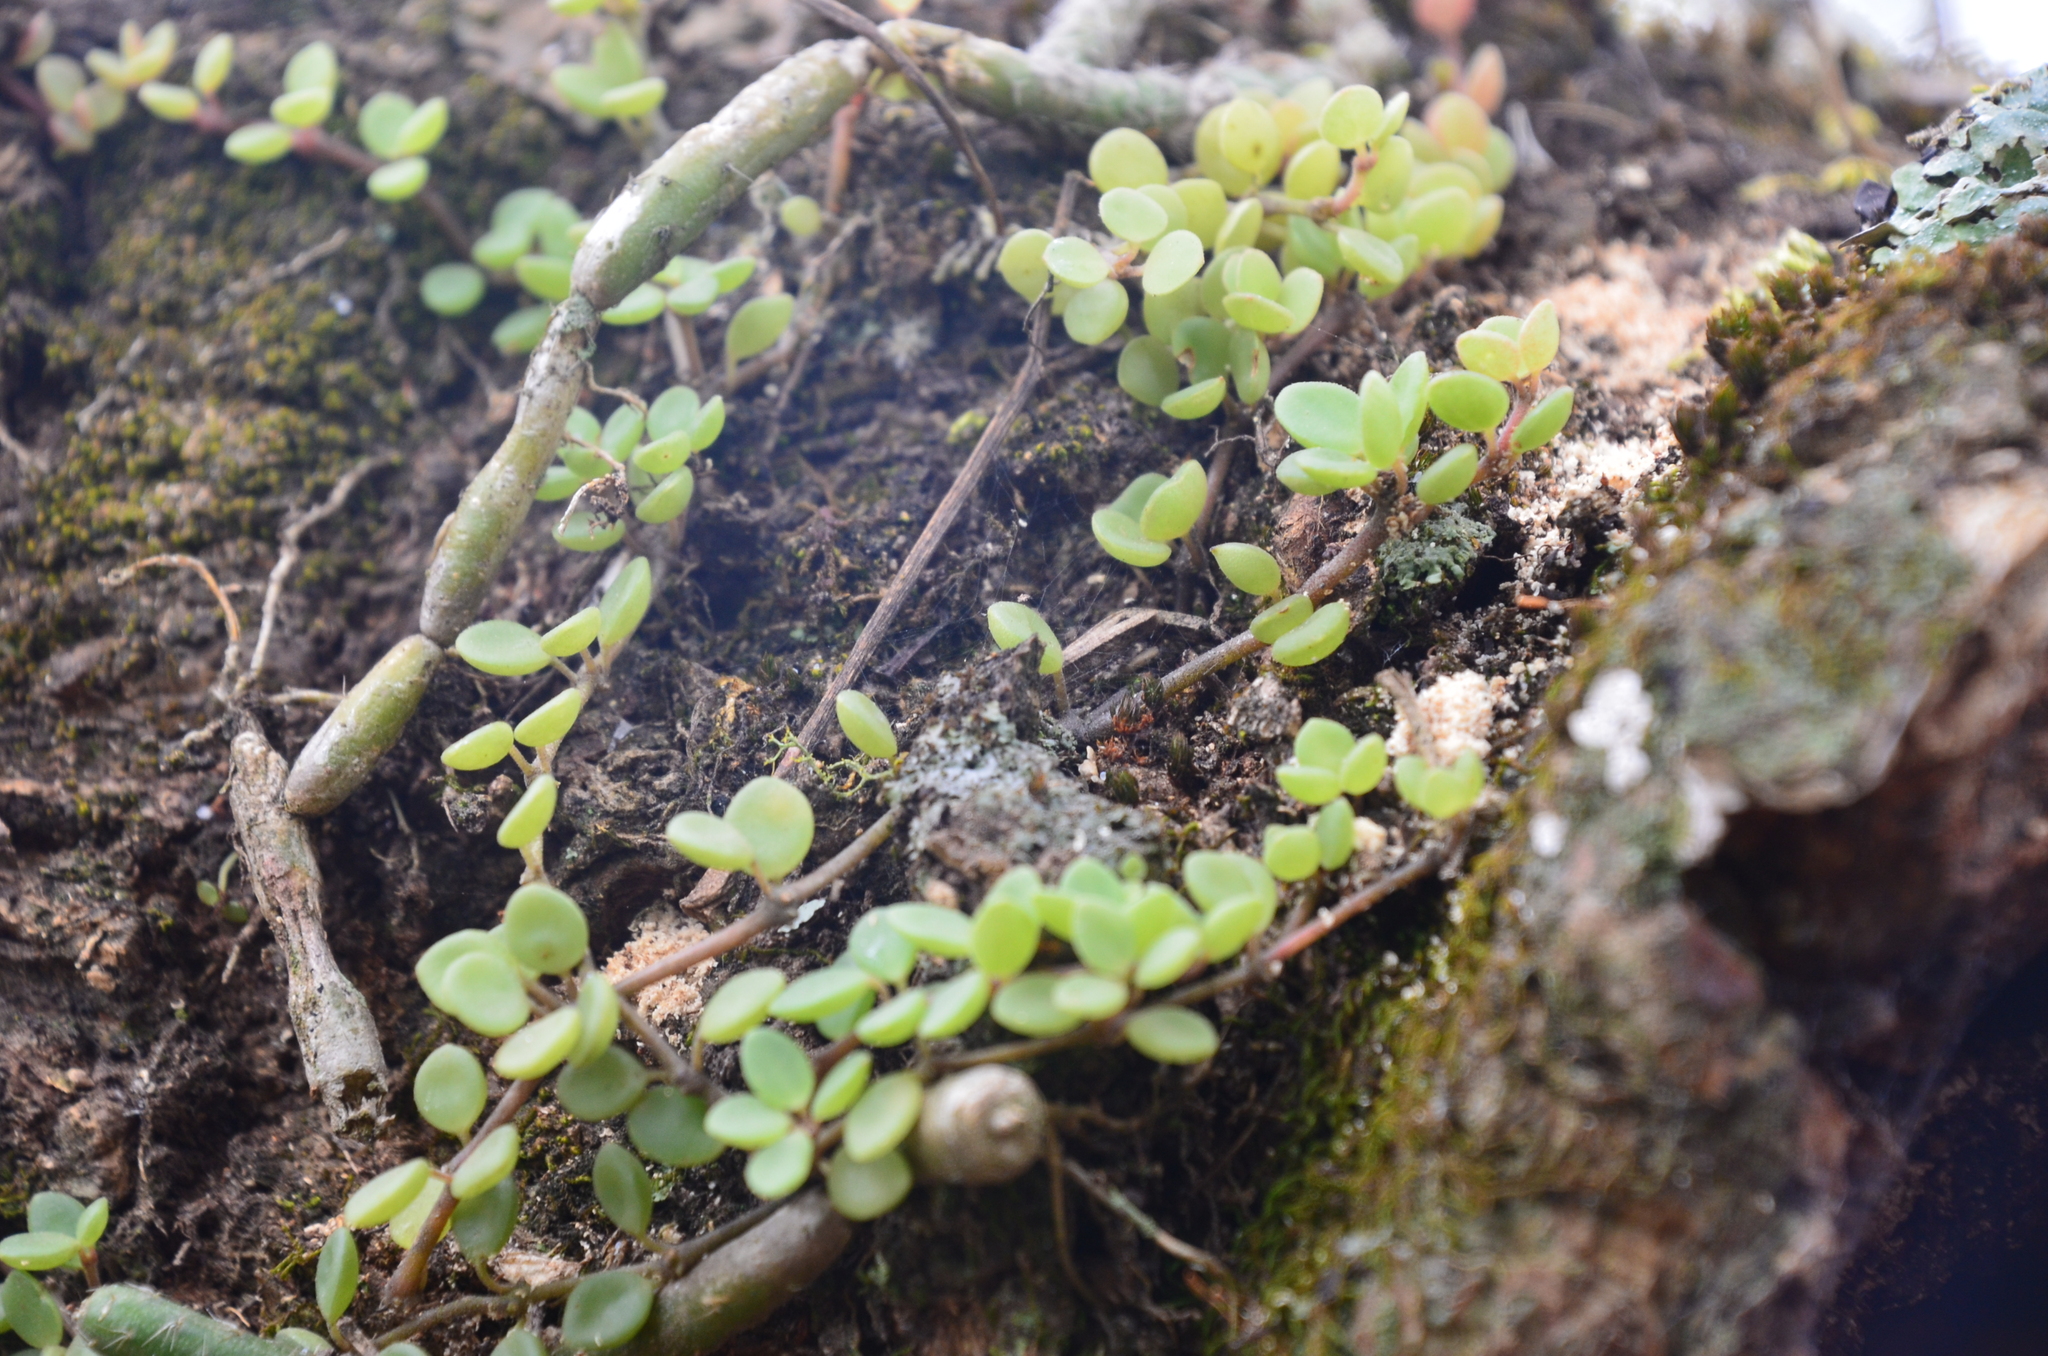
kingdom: Plantae
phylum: Tracheophyta
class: Magnoliopsida
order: Piperales
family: Piperaceae
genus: Peperomia
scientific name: Peperomia lorentzii
